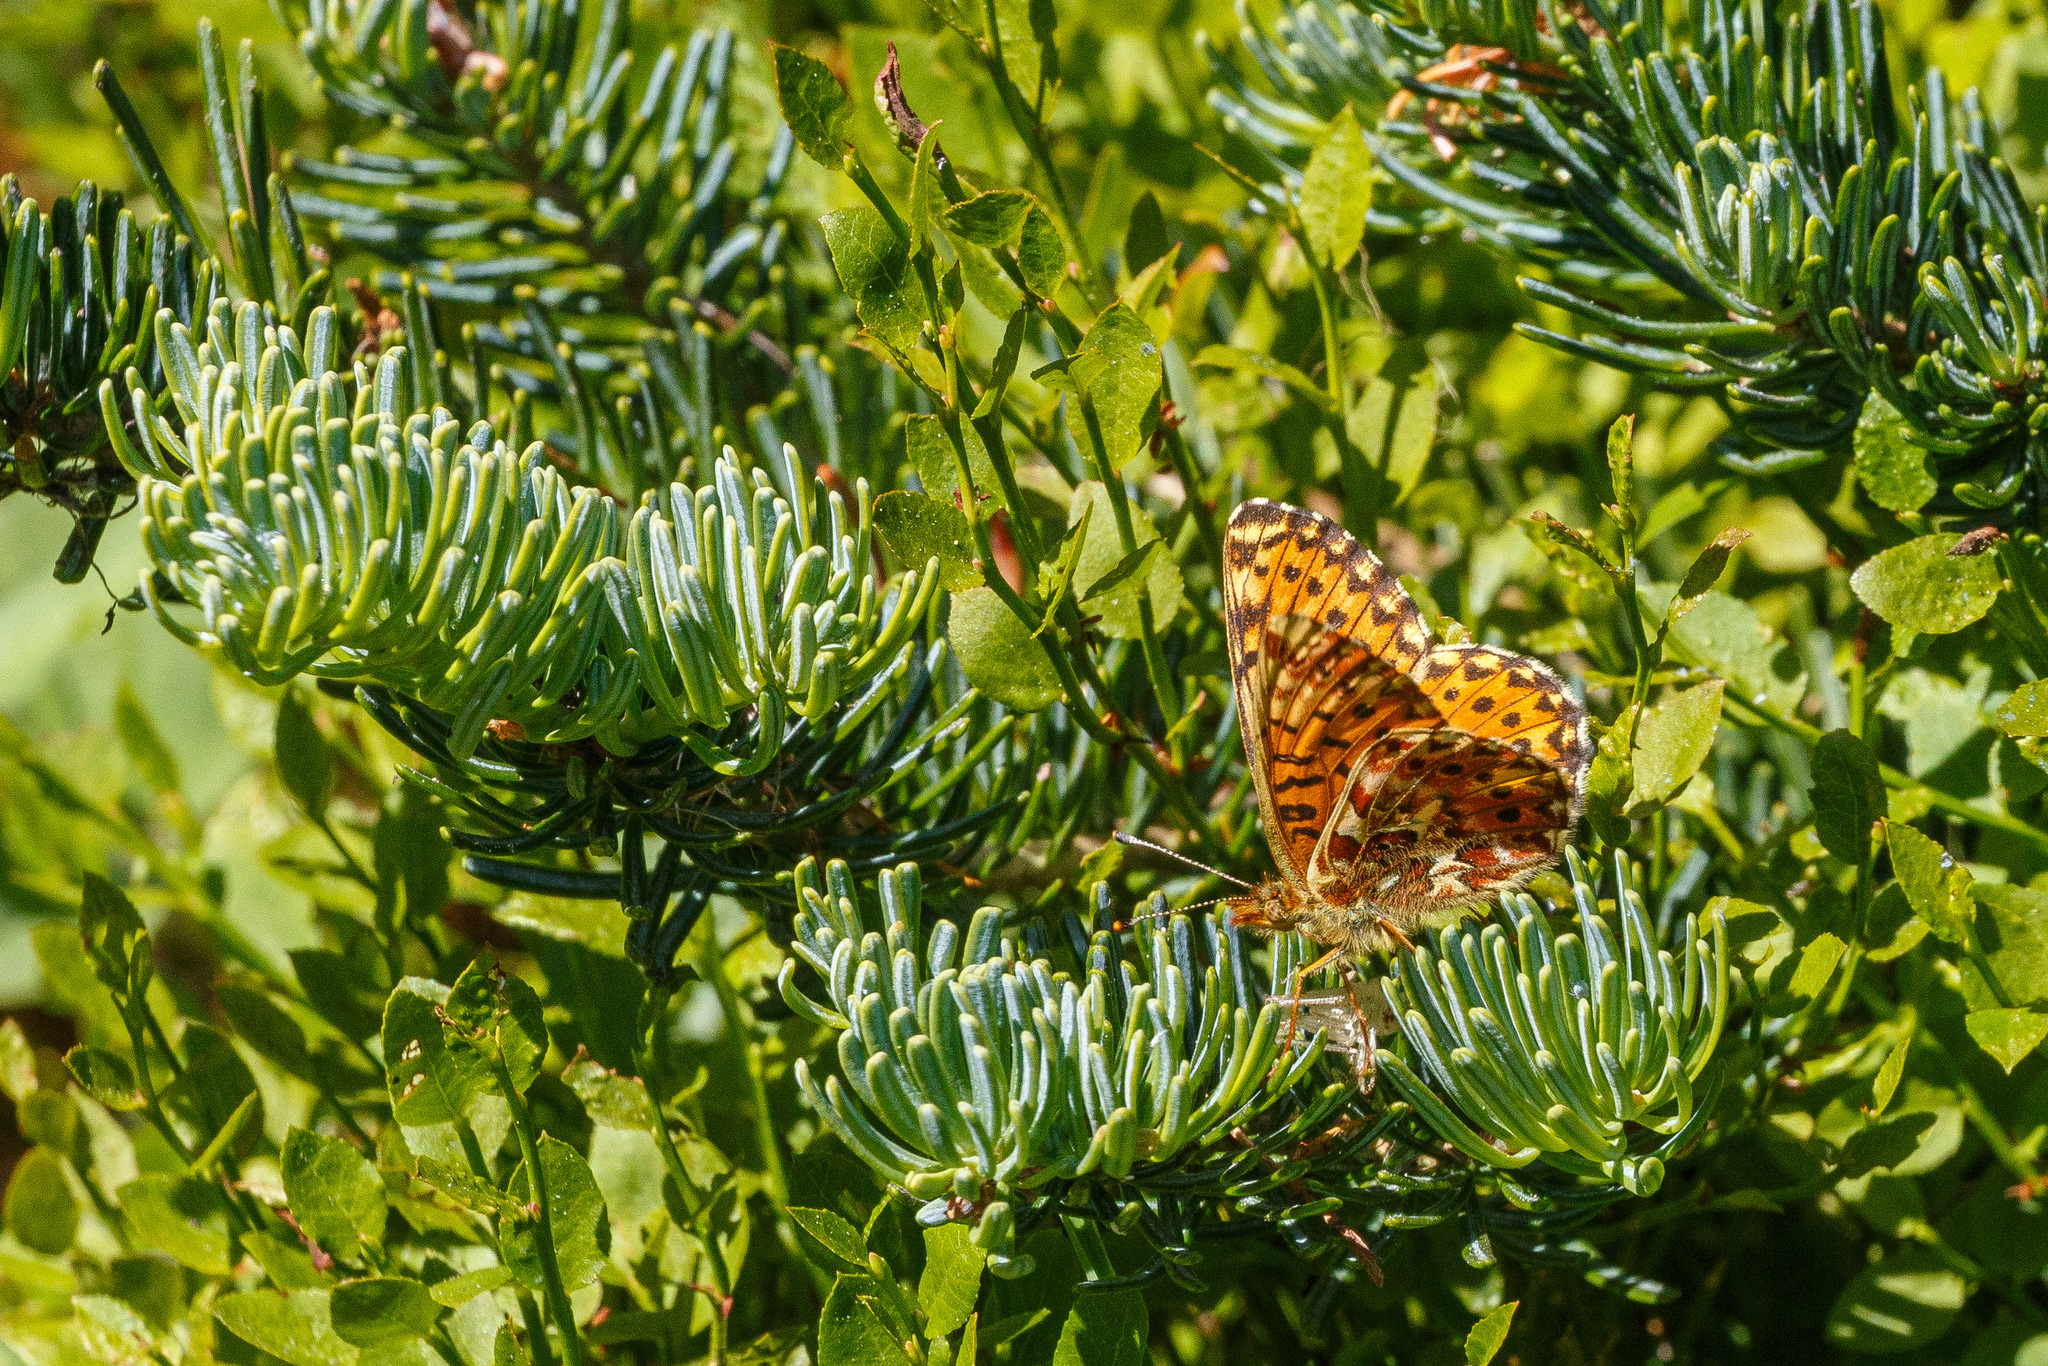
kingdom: Animalia
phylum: Arthropoda
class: Insecta
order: Lepidoptera
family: Nymphalidae
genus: Clossiana
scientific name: Clossiana chariclea
